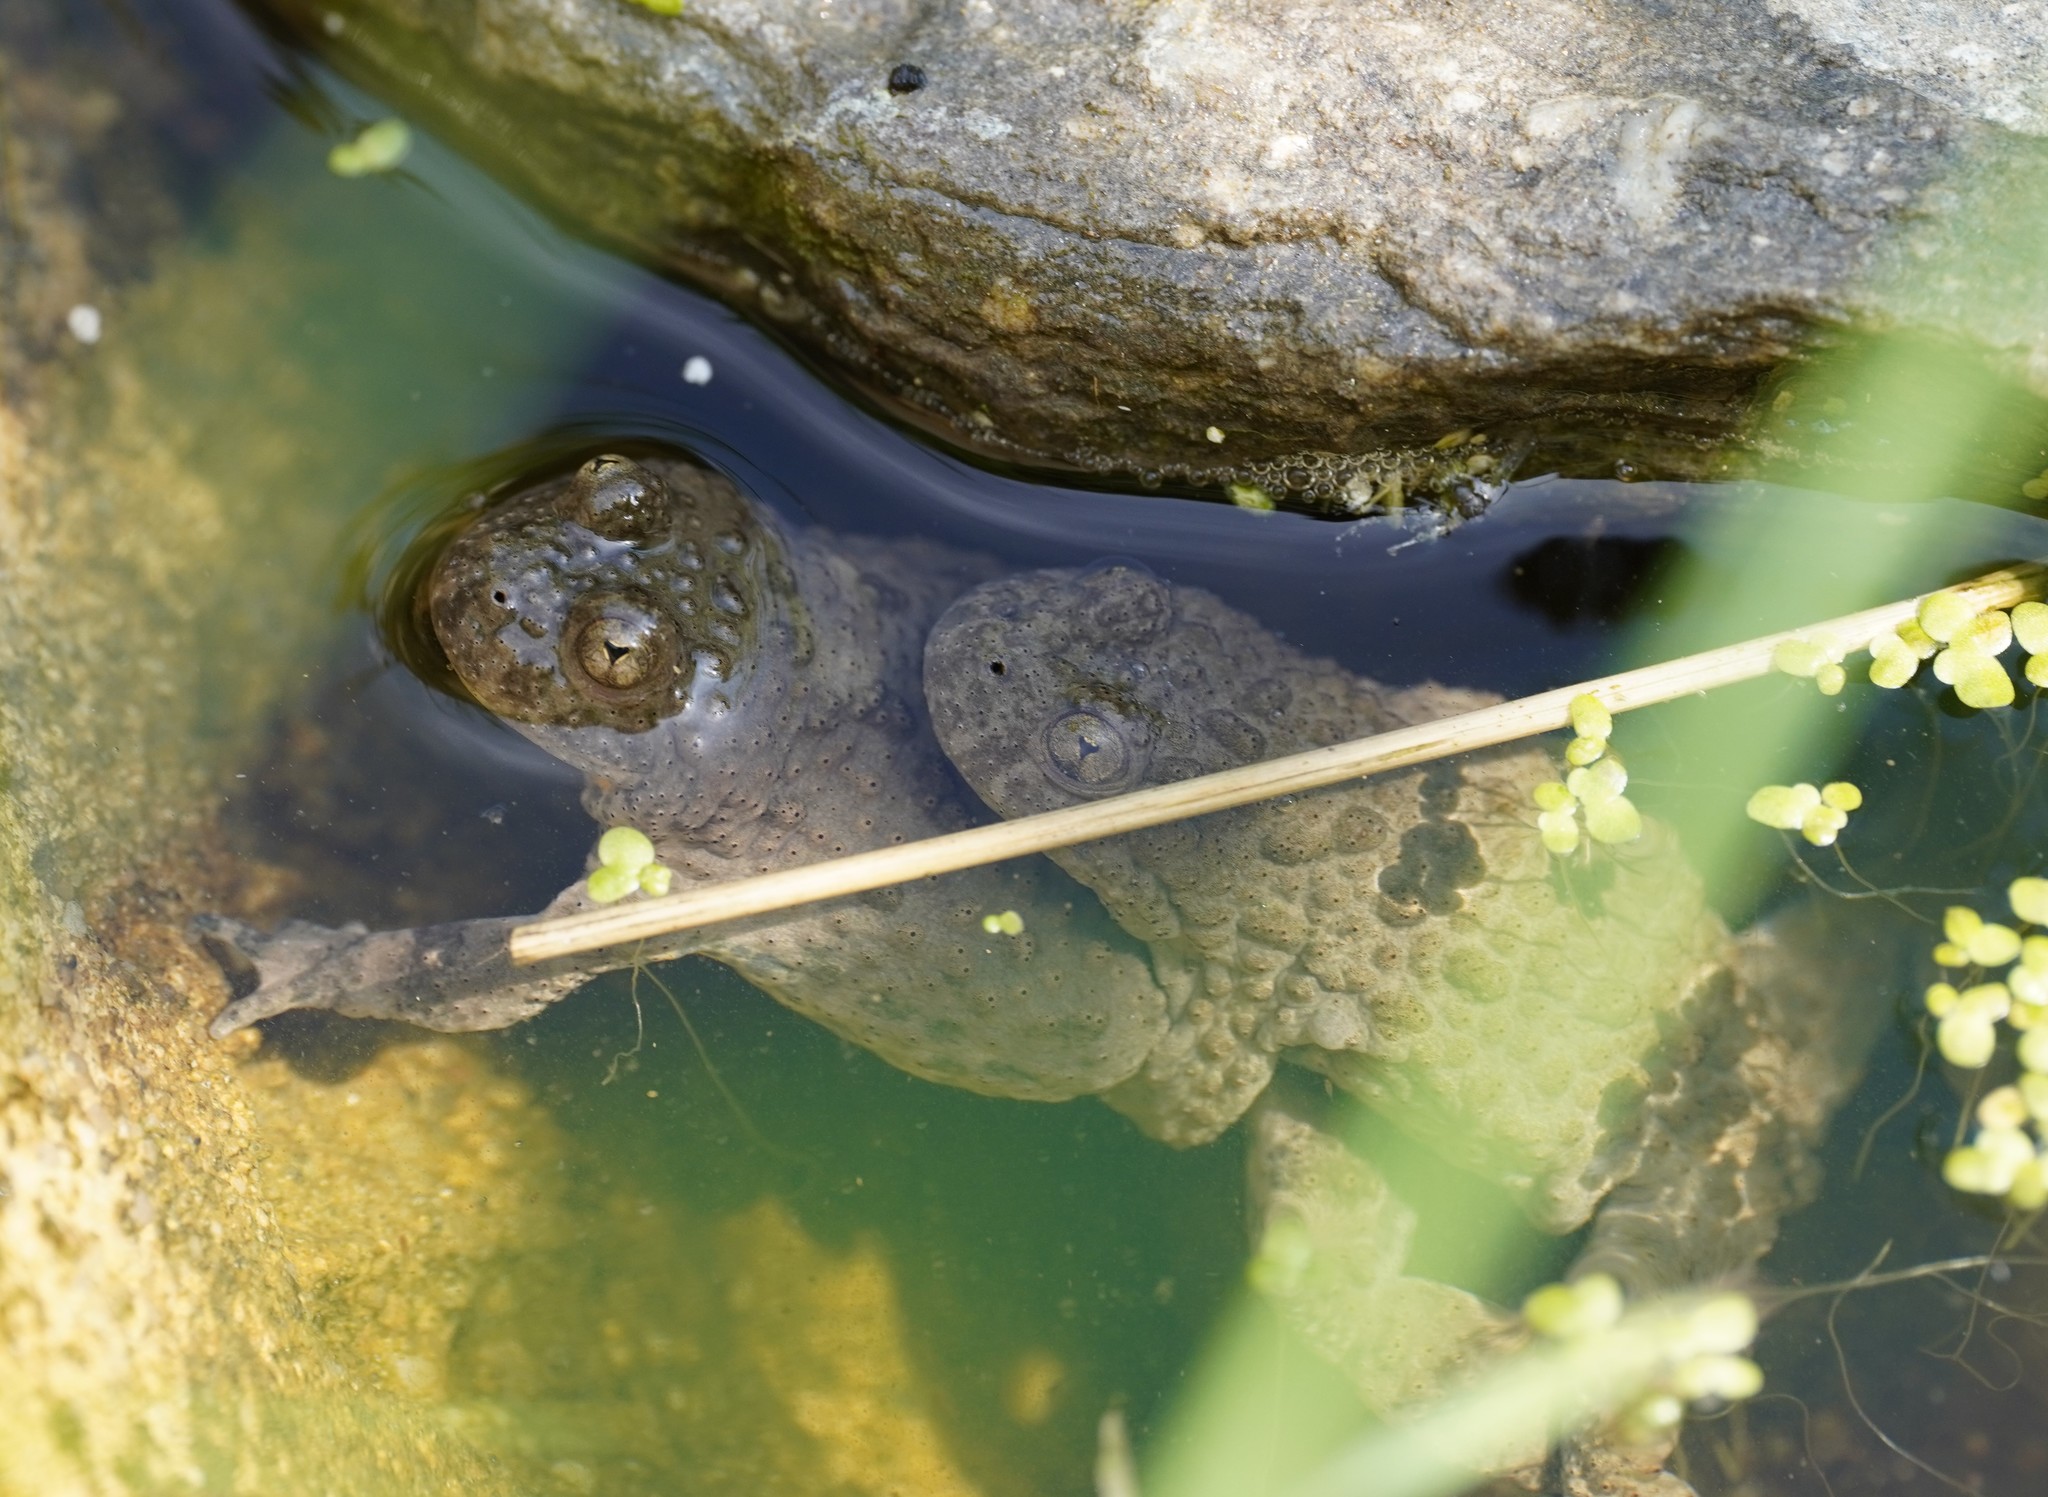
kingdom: Animalia
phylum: Chordata
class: Amphibia
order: Anura
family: Bombinatoridae
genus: Bombina
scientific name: Bombina variegata
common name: Yellow-bellied toad
